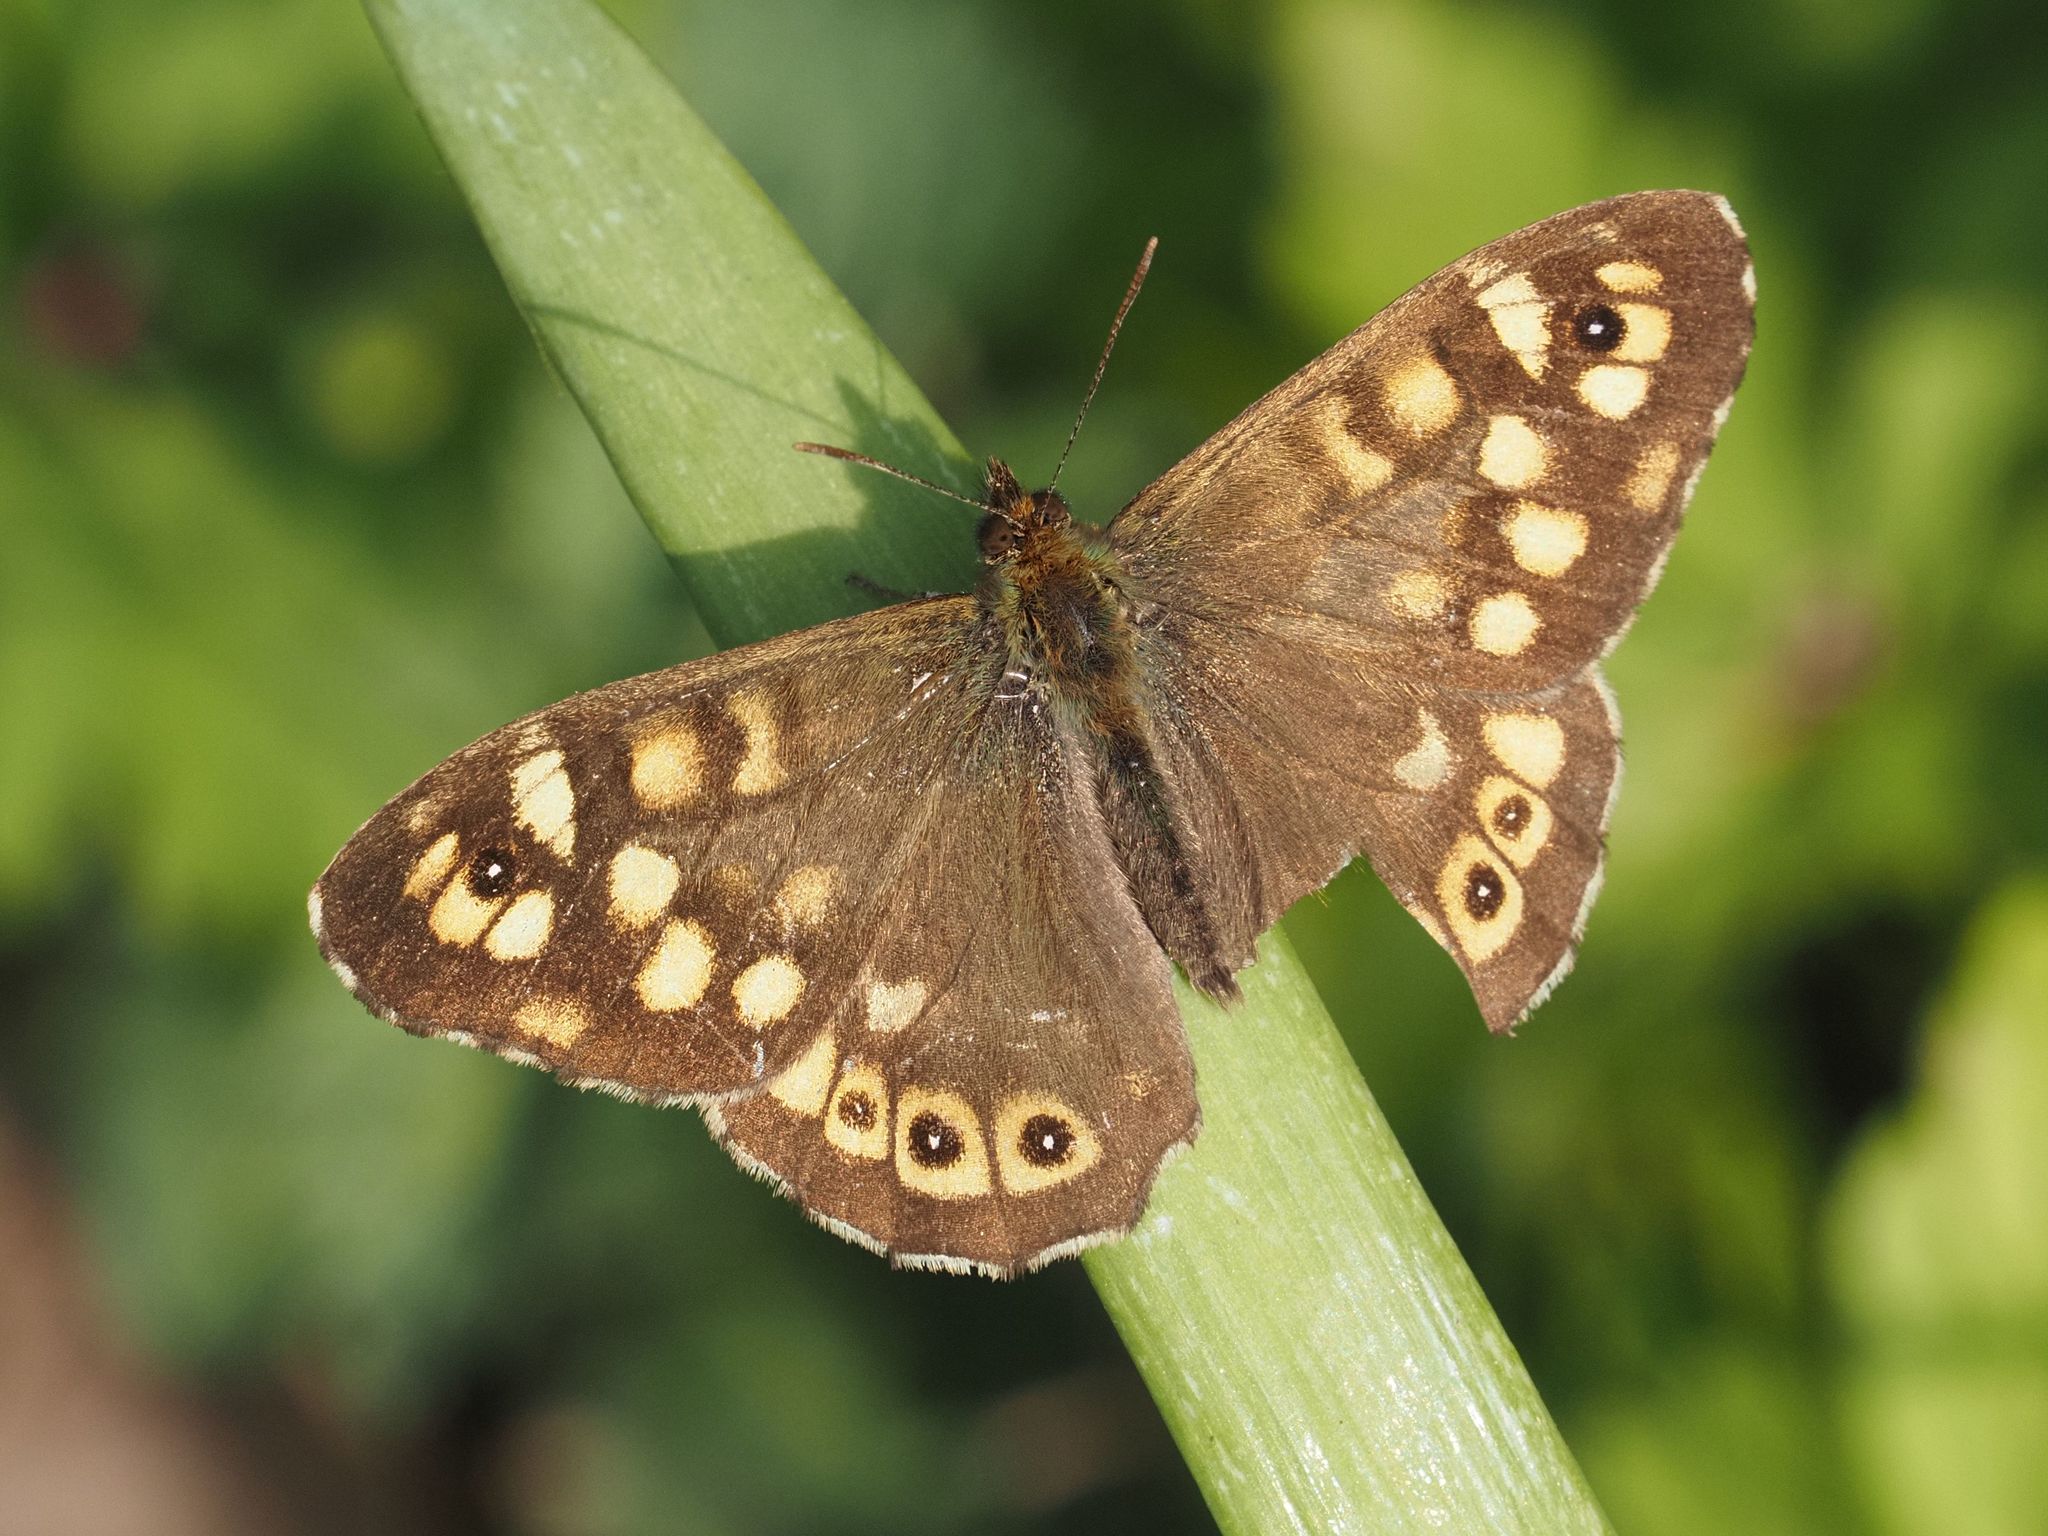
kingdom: Animalia
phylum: Arthropoda
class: Insecta
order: Lepidoptera
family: Nymphalidae
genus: Pararge
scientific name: Pararge aegeria
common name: Speckled wood
